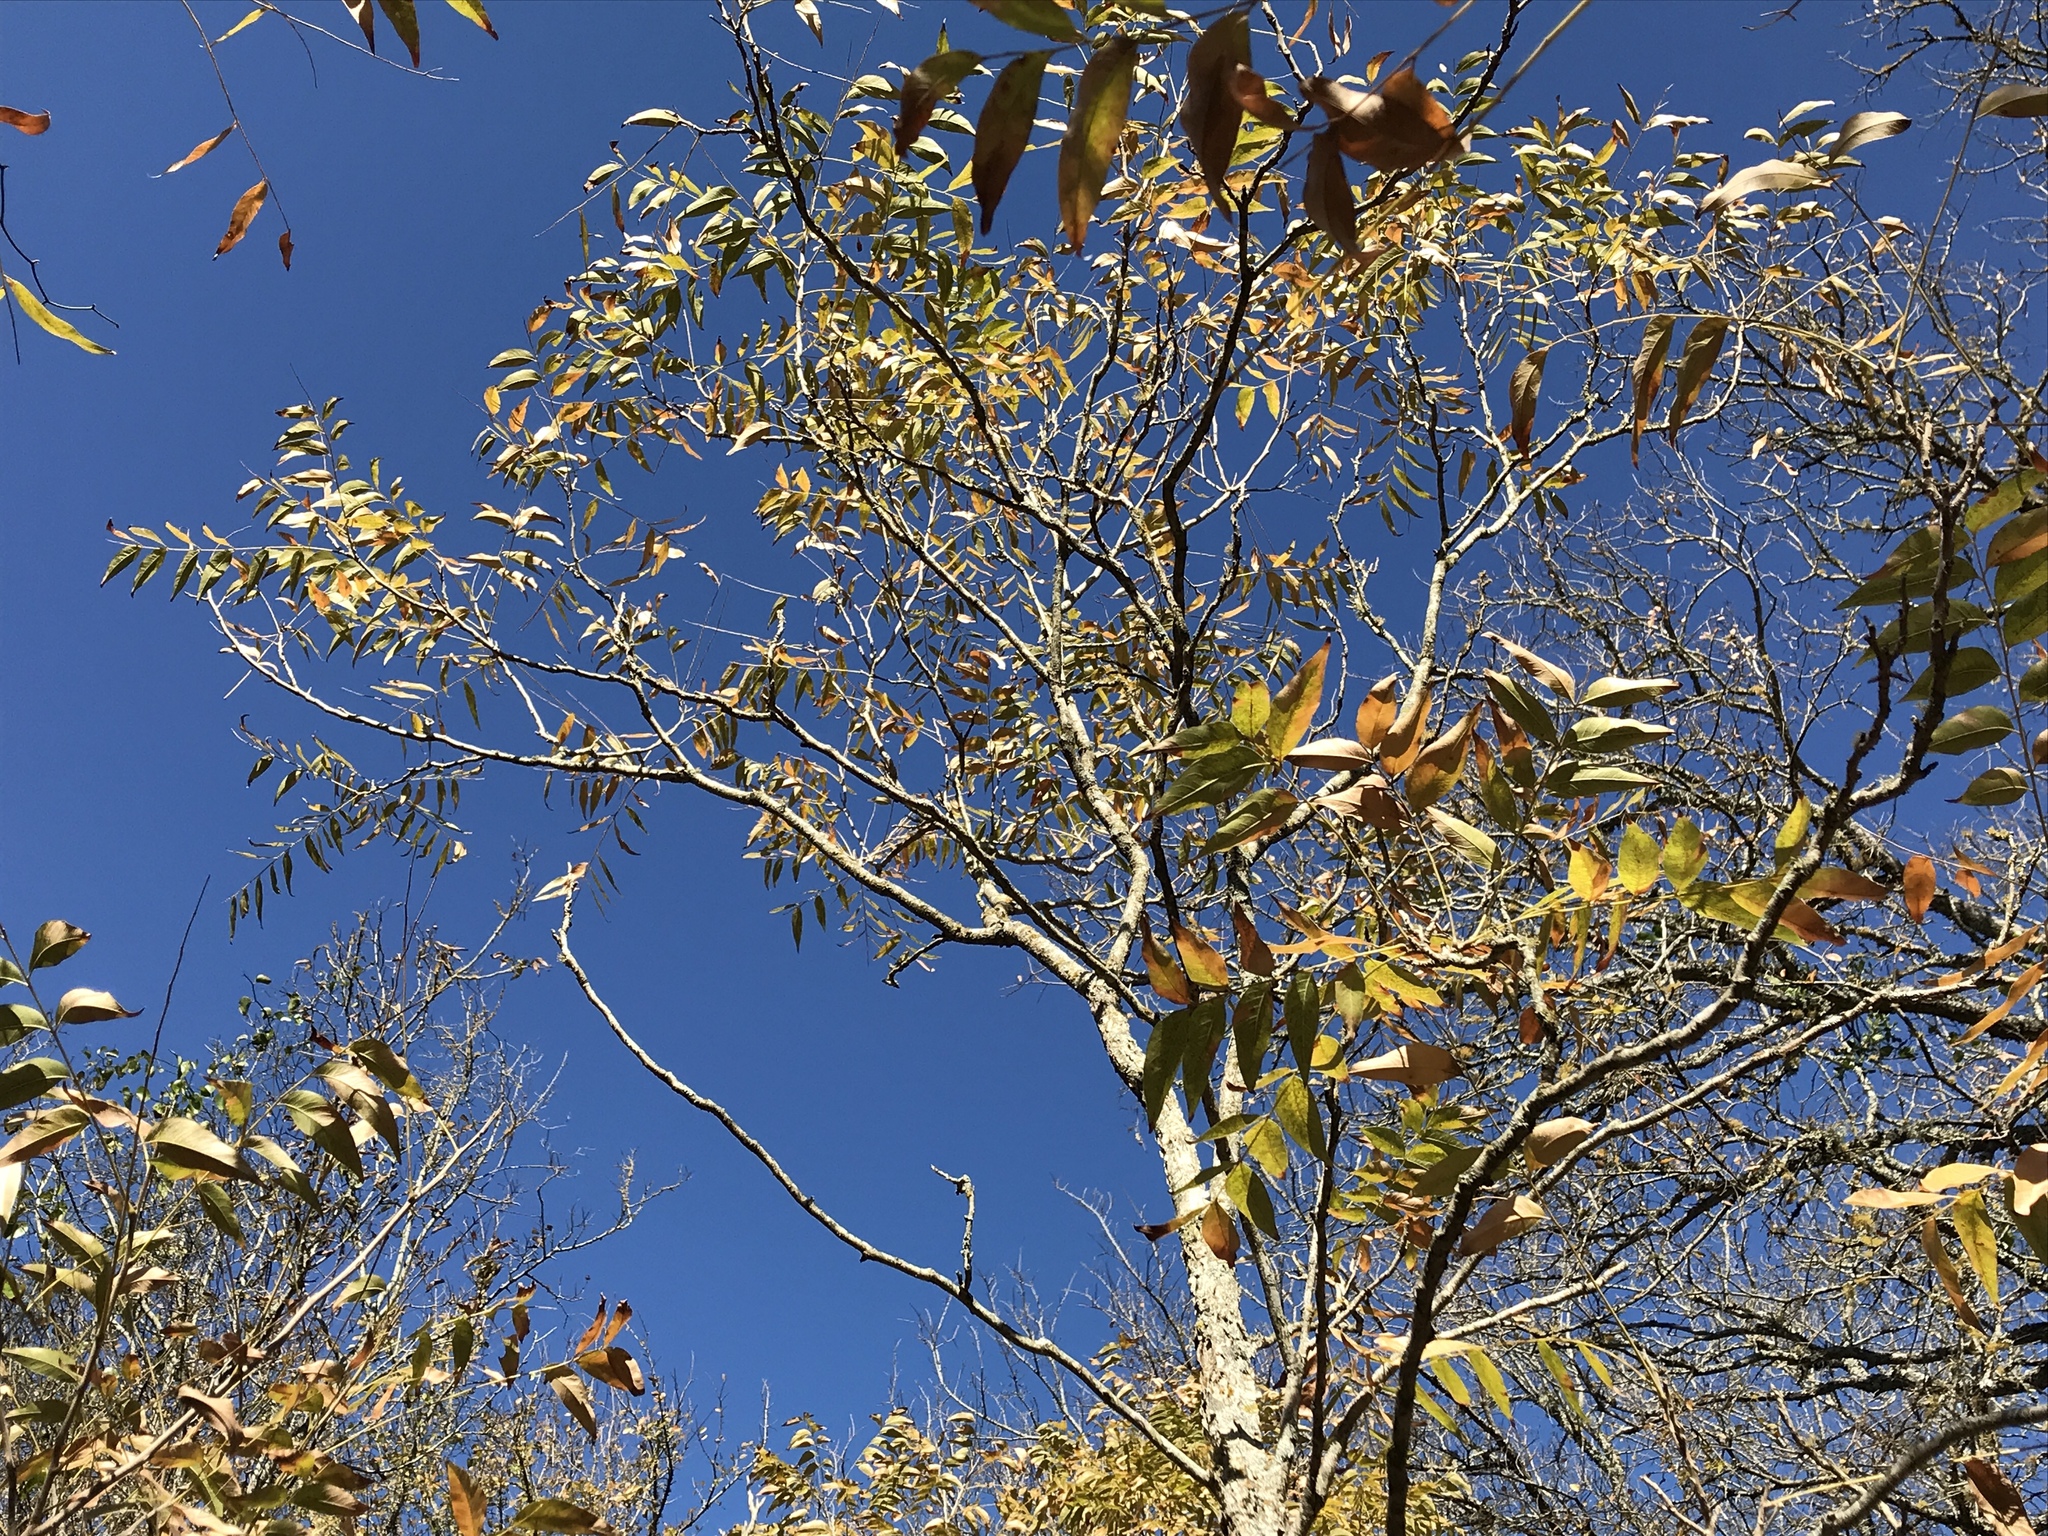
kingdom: Plantae
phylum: Tracheophyta
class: Magnoliopsida
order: Sapindales
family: Sapindaceae
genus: Sapindus
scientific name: Sapindus drummondii
